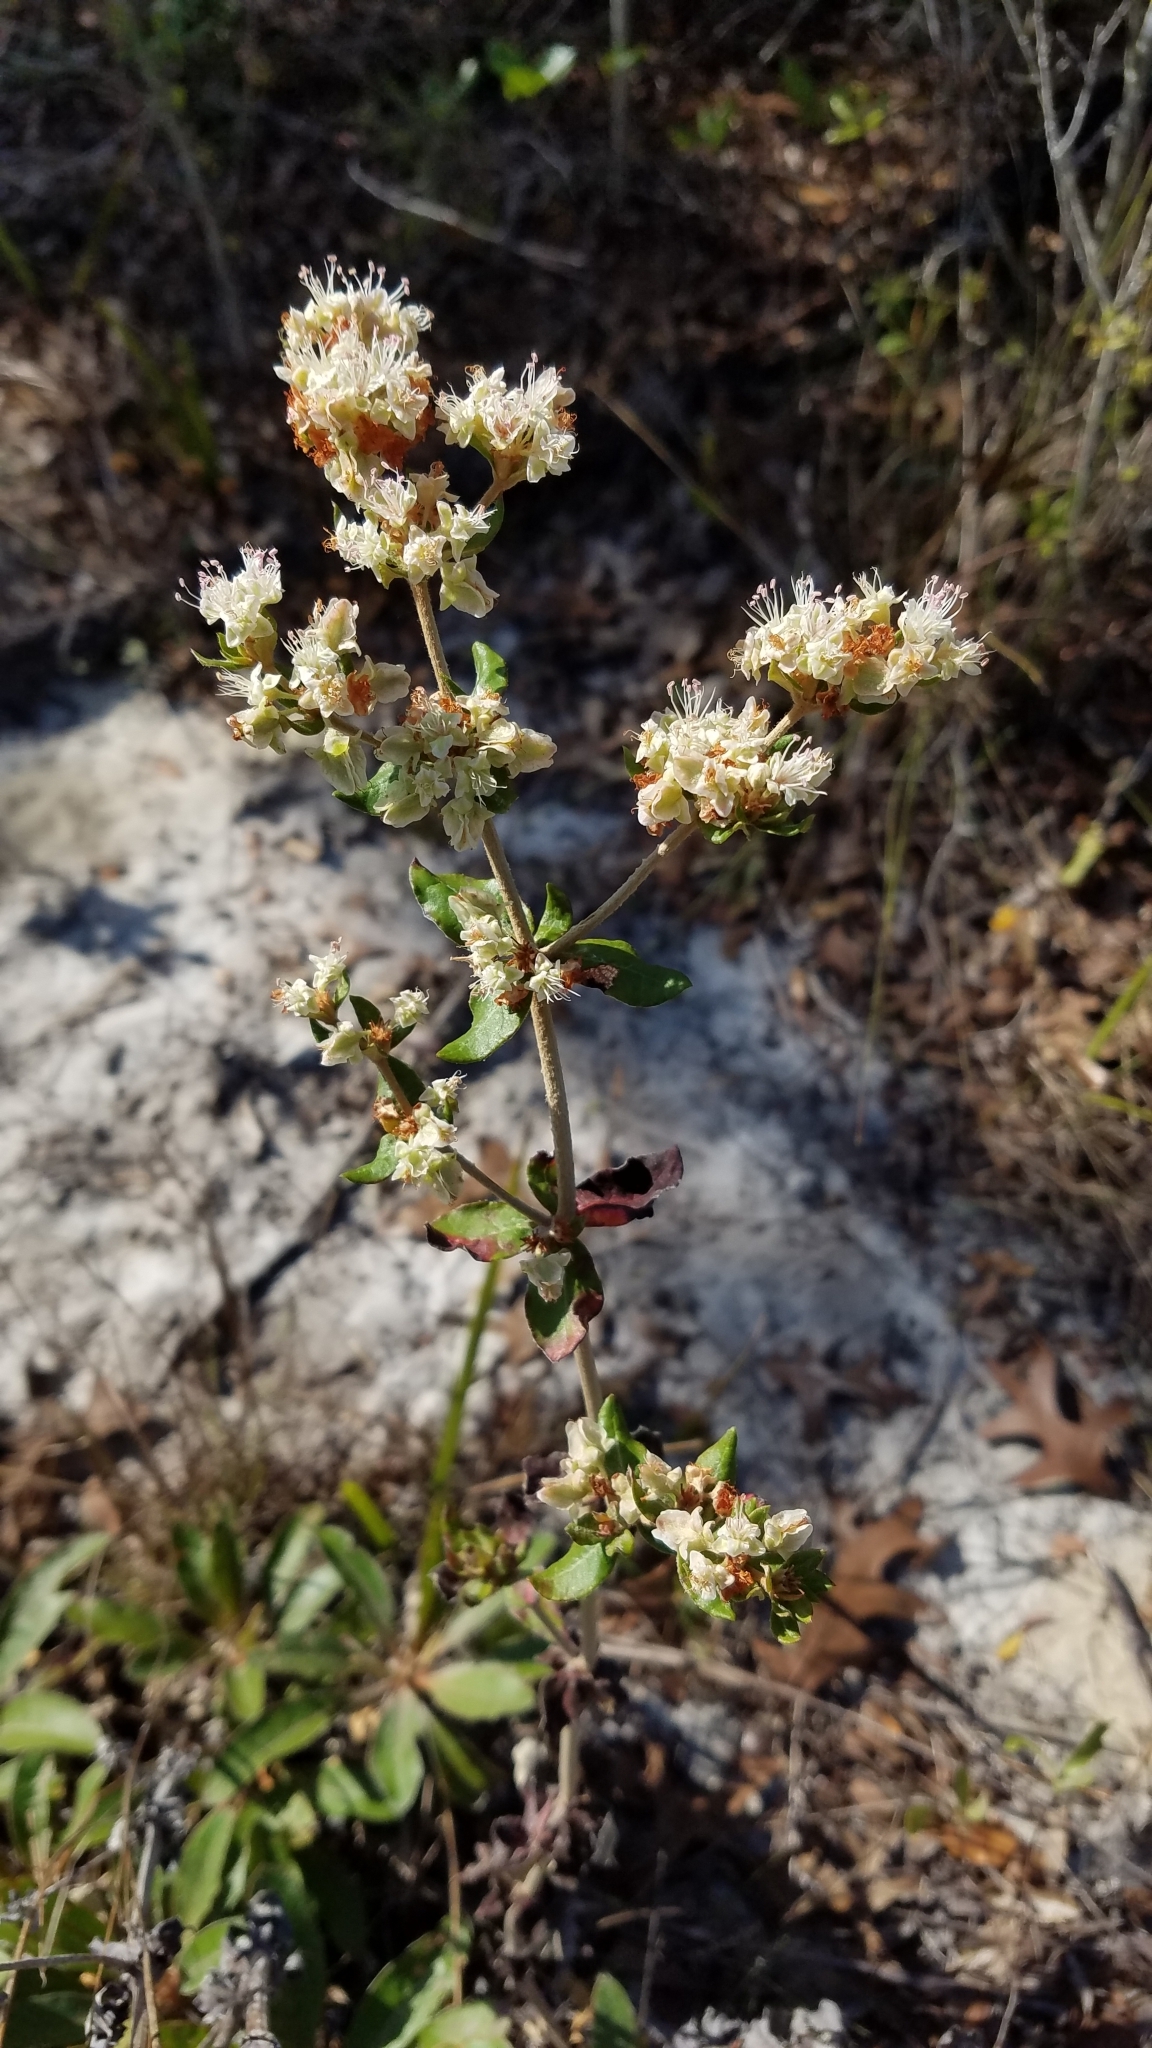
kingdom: Plantae
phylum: Tracheophyta
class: Magnoliopsida
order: Caryophyllales
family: Polygonaceae
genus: Eriogonum
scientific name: Eriogonum tomentosum
